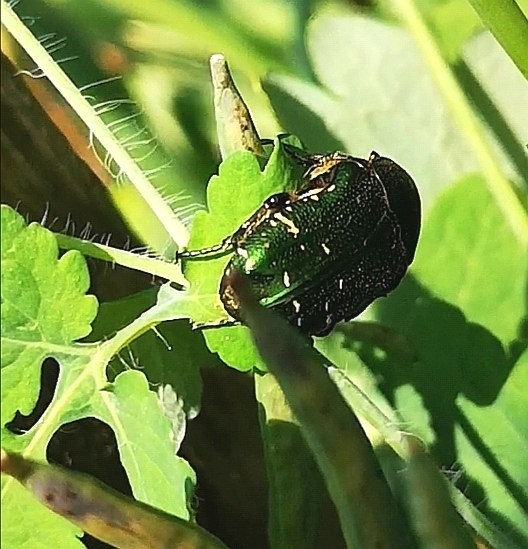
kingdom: Animalia
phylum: Arthropoda
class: Insecta
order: Coleoptera
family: Scarabaeidae
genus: Cetonia
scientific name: Cetonia aurata
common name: Rose chafer
